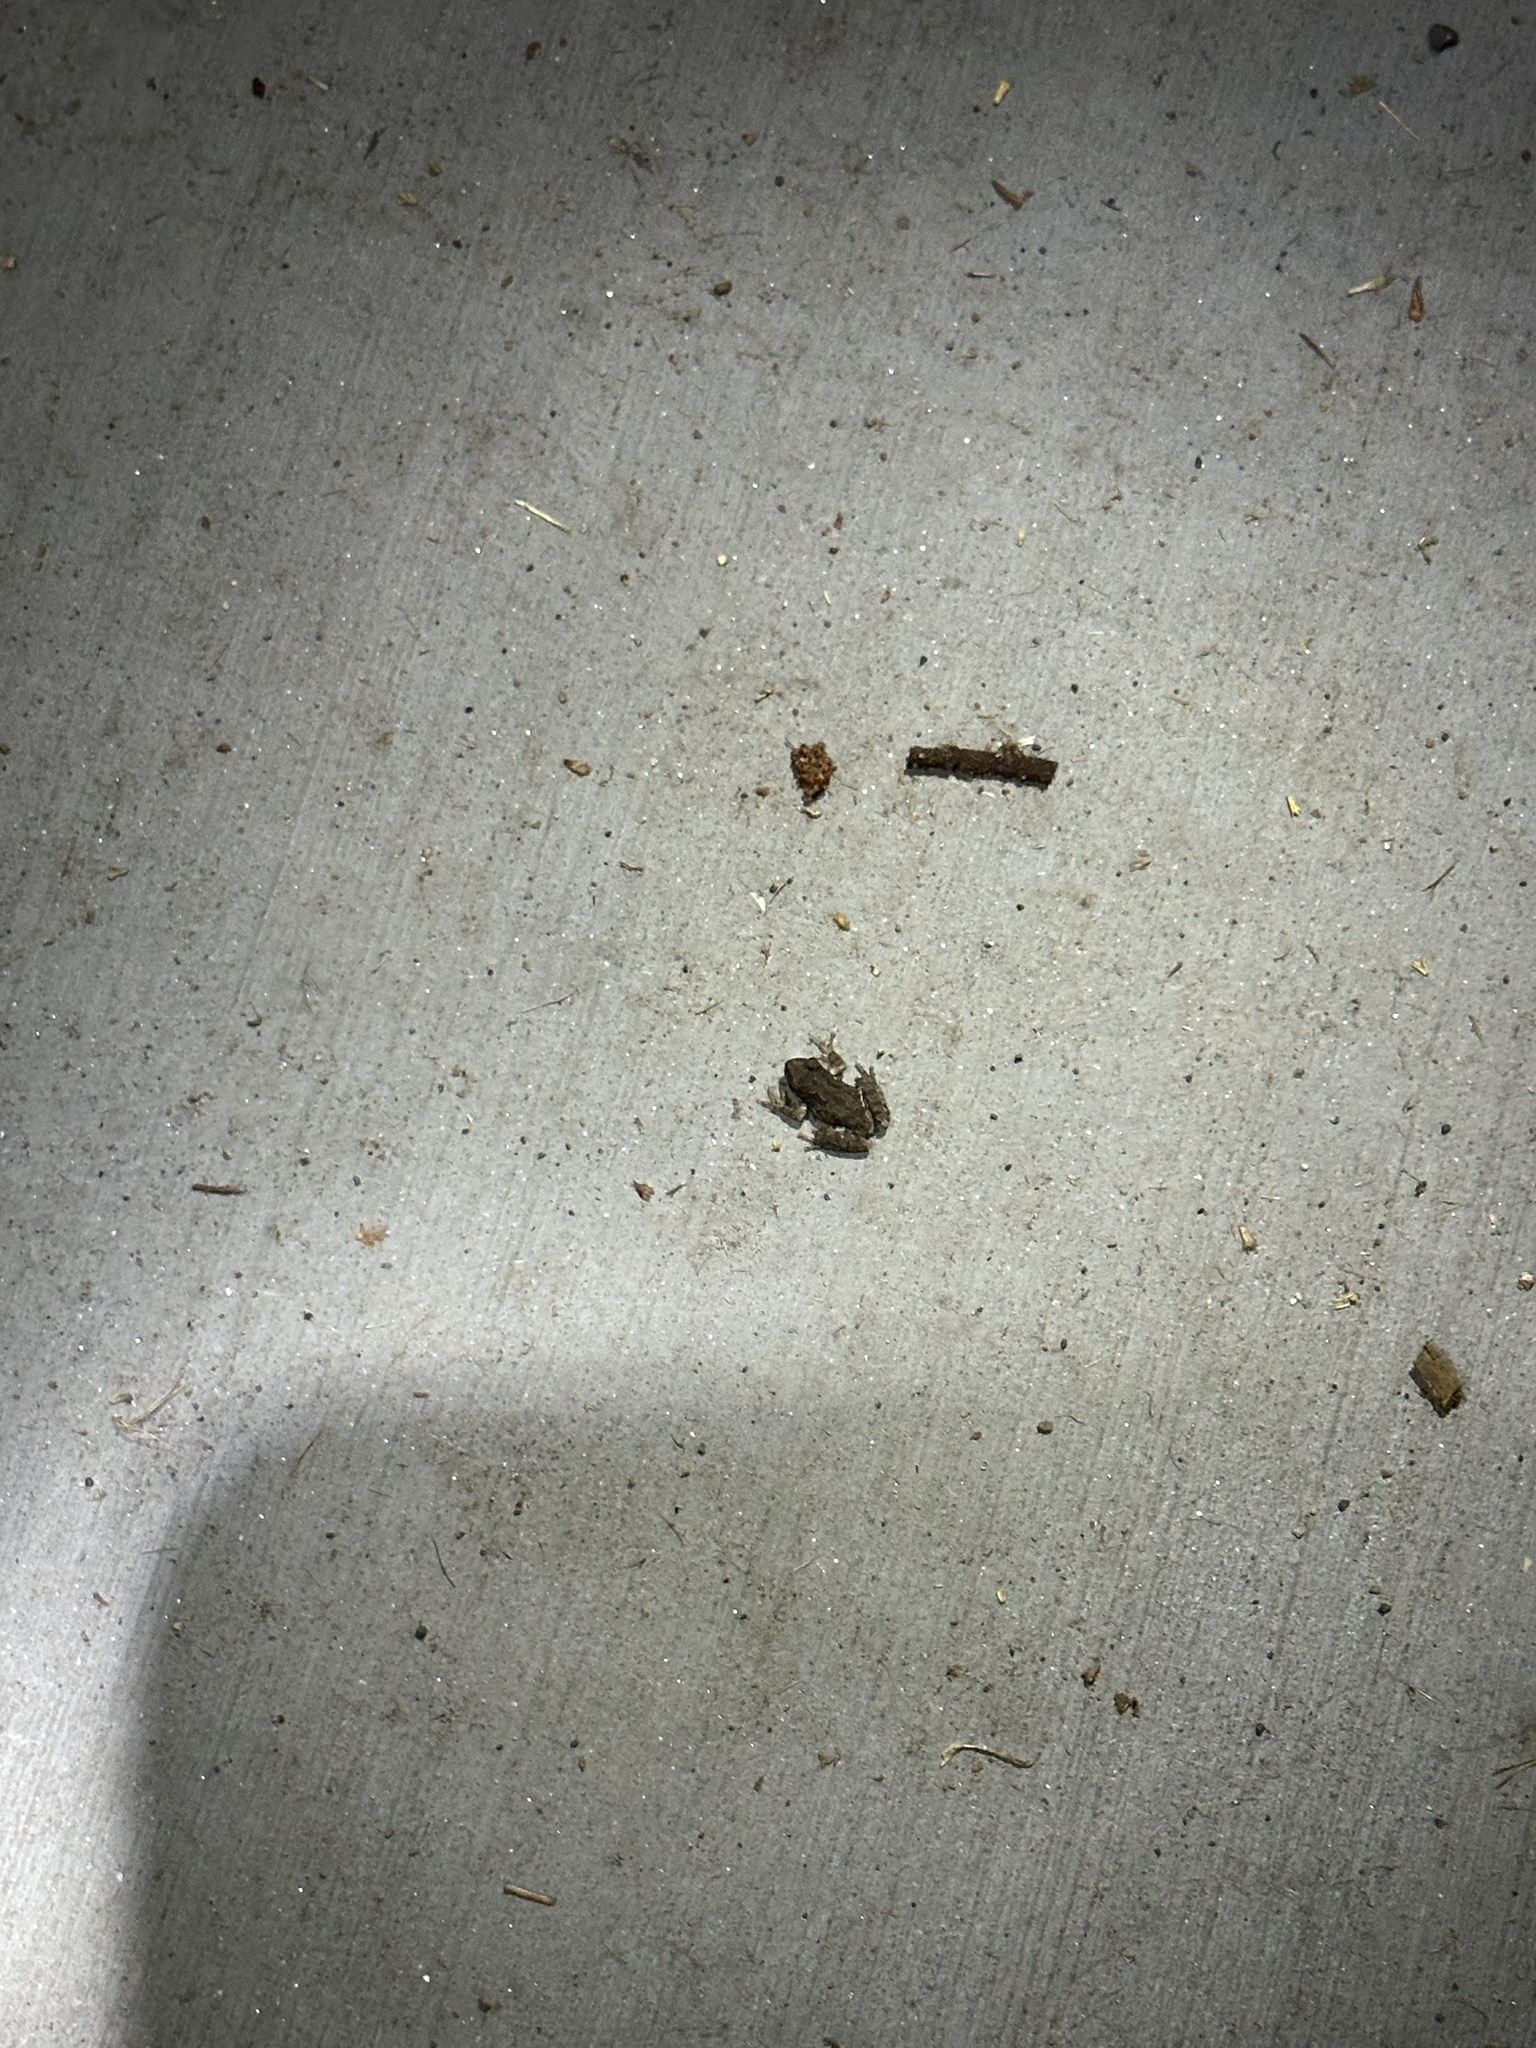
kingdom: Animalia
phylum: Chordata
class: Amphibia
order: Anura
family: Hylidae
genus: Pseudacris
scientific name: Pseudacris regilla
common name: Pacific chorus frog
